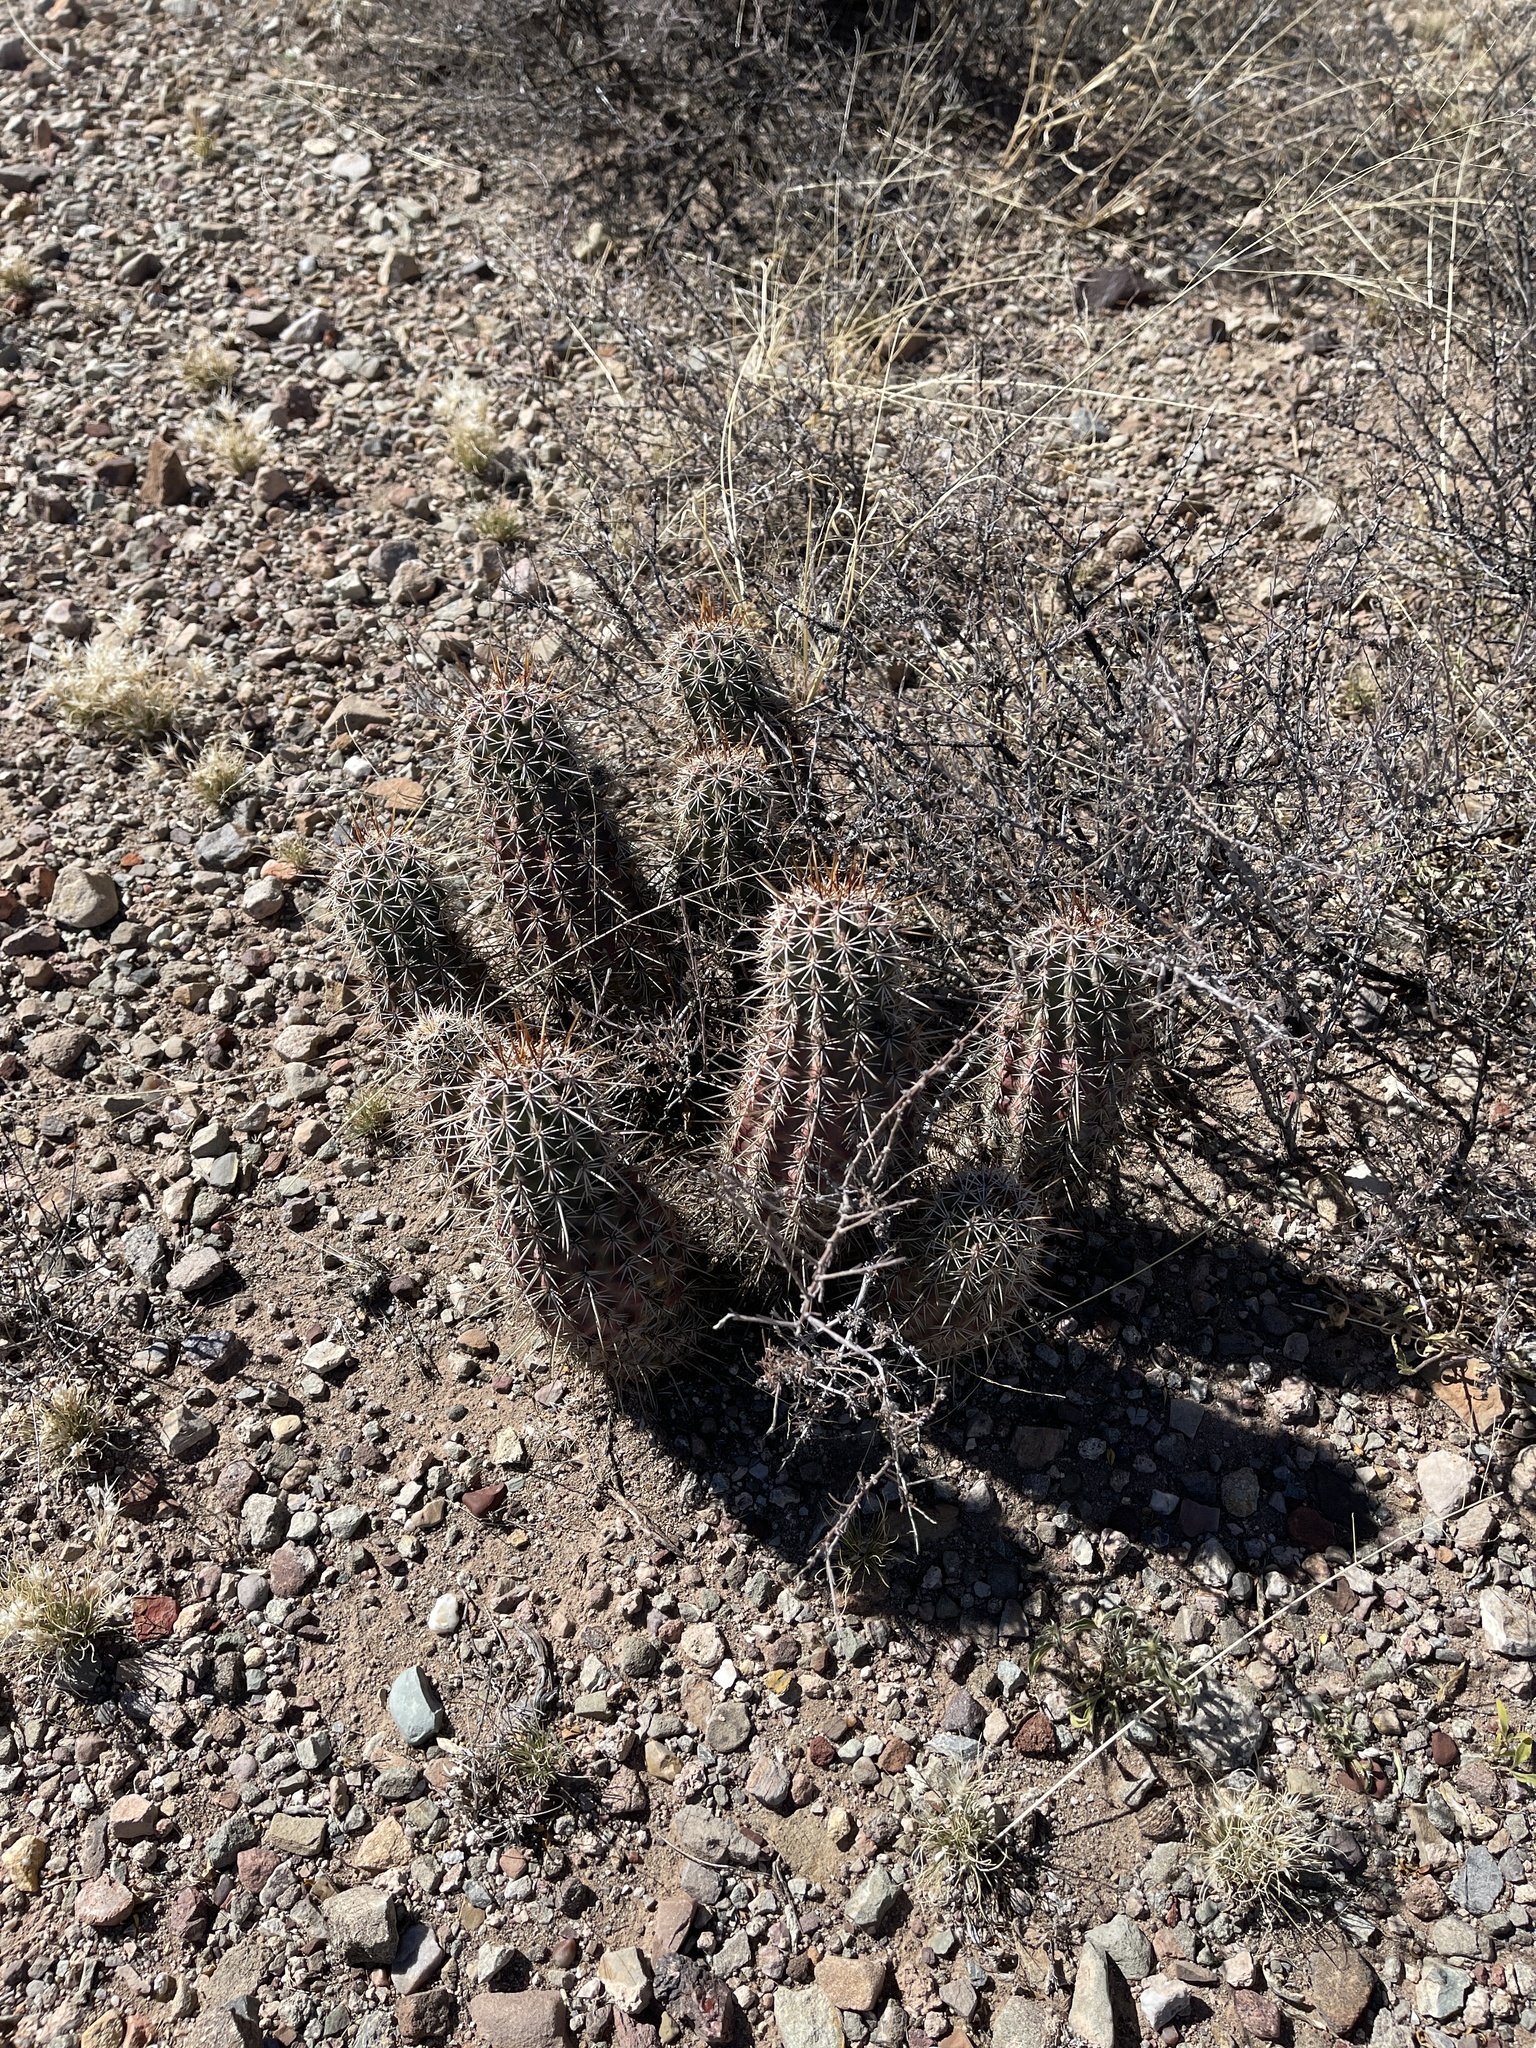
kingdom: Plantae
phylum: Tracheophyta
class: Magnoliopsida
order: Caryophyllales
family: Cactaceae
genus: Echinocereus
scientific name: Echinocereus fasciculatus
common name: Bundle hedgehog
